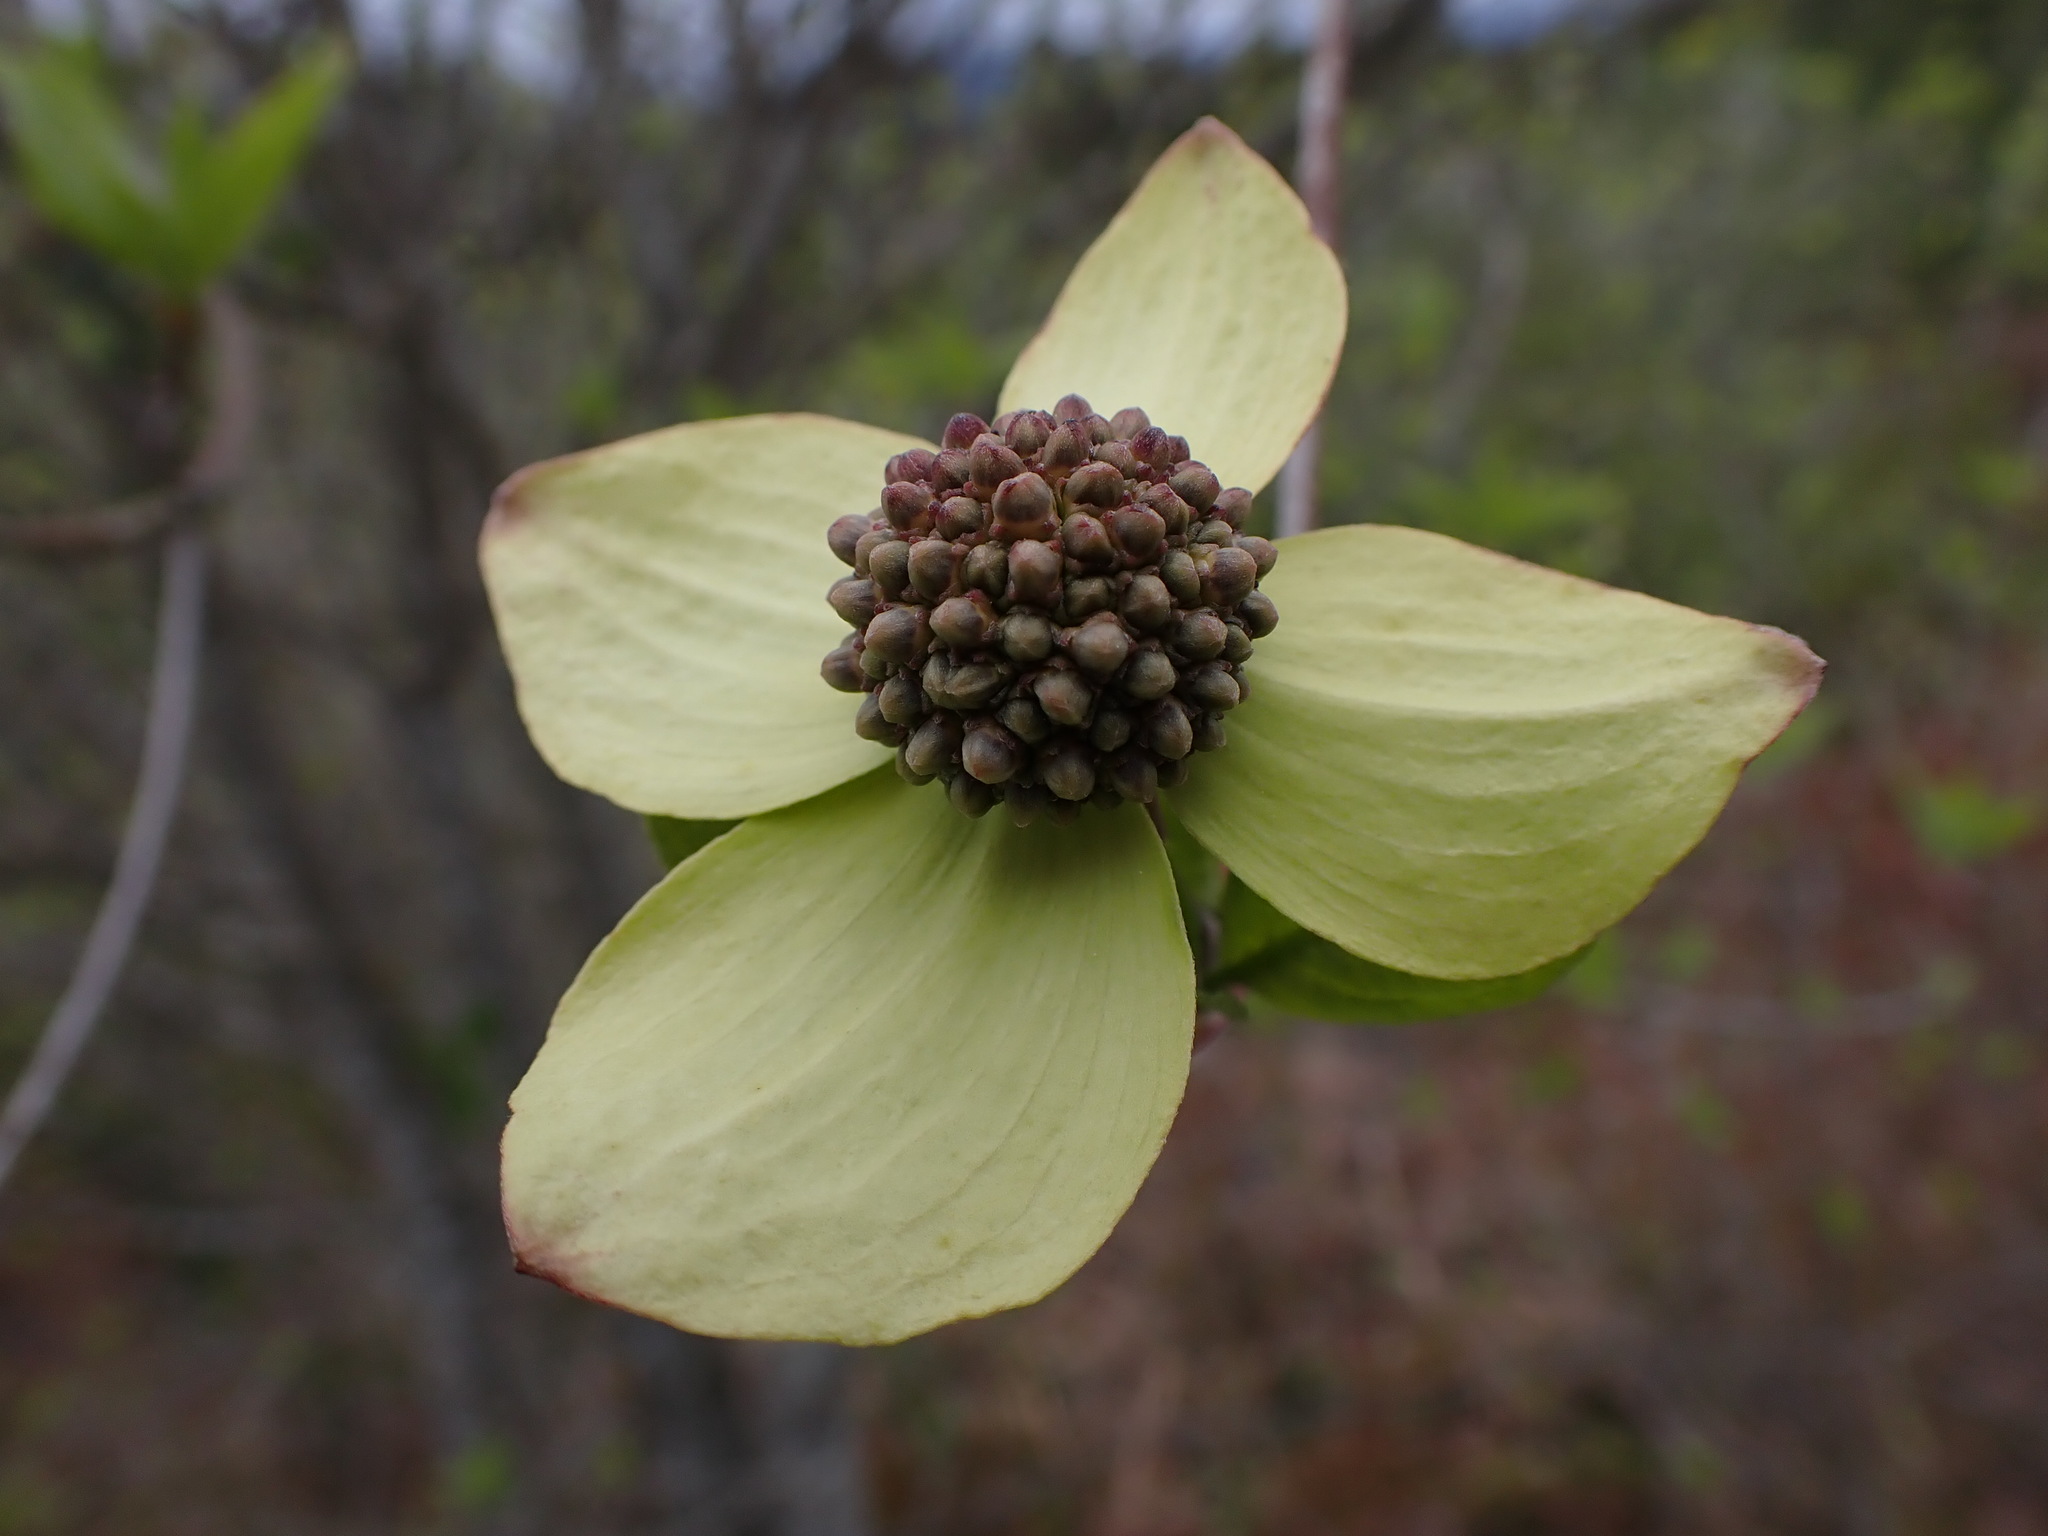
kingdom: Plantae
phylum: Tracheophyta
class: Magnoliopsida
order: Cornales
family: Cornaceae
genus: Cornus
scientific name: Cornus nuttallii
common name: Pacific dogwood
